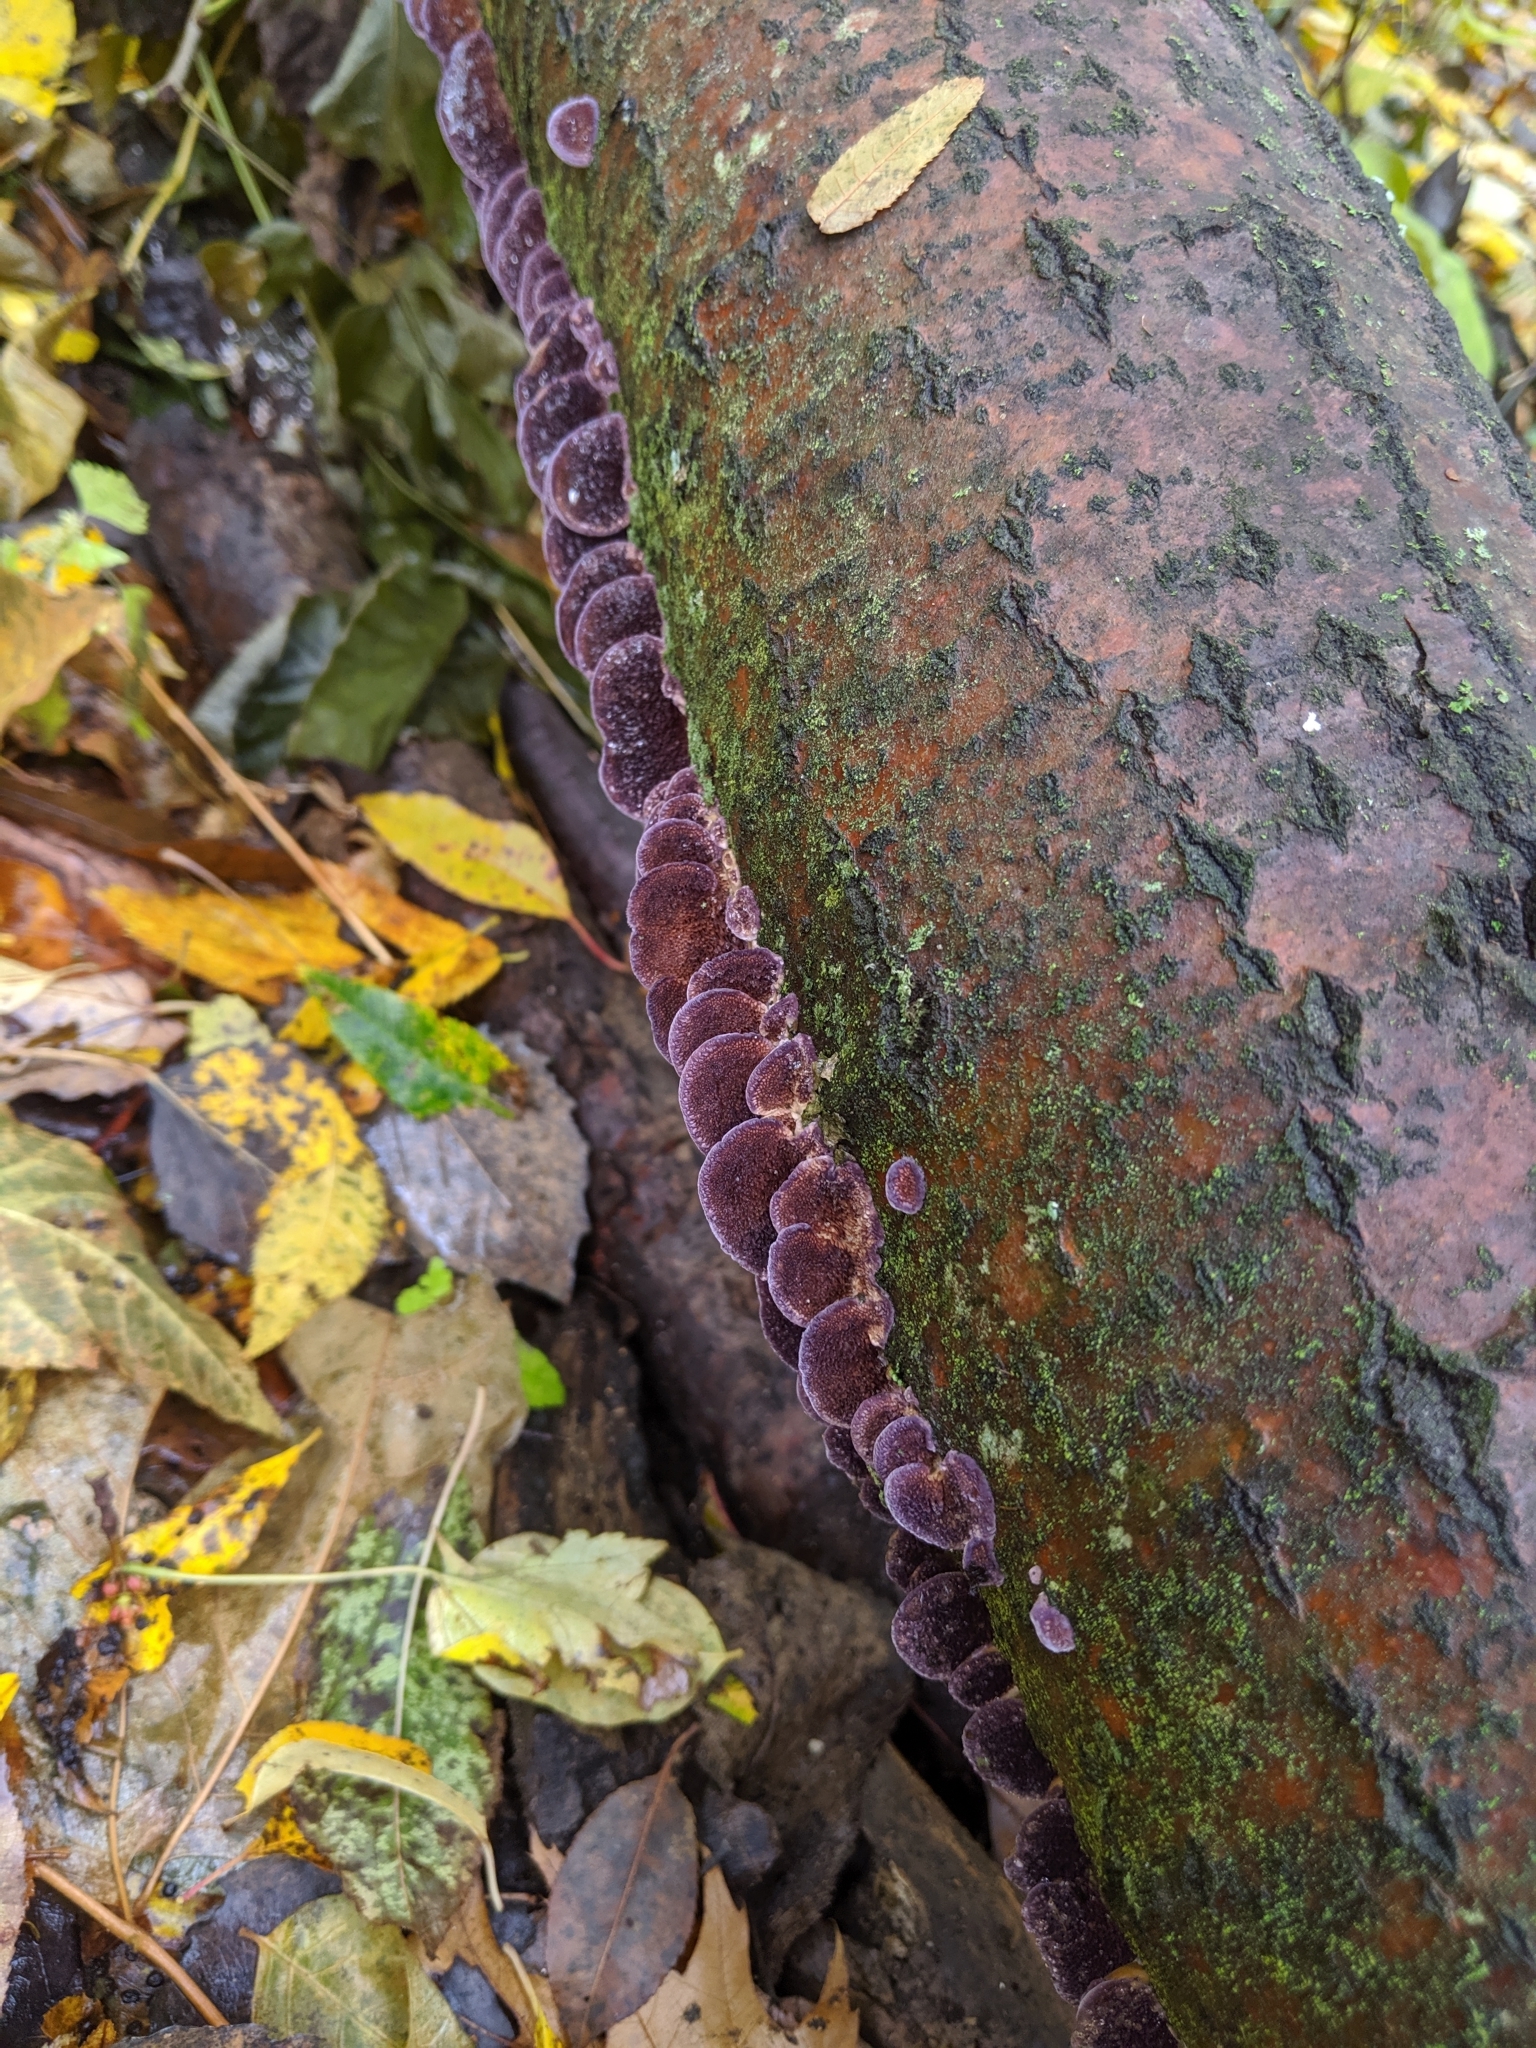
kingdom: Fungi
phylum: Basidiomycota
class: Agaricomycetes
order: Hymenochaetales
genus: Trichaptum
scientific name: Trichaptum biforme
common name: Violet-toothed polypore
